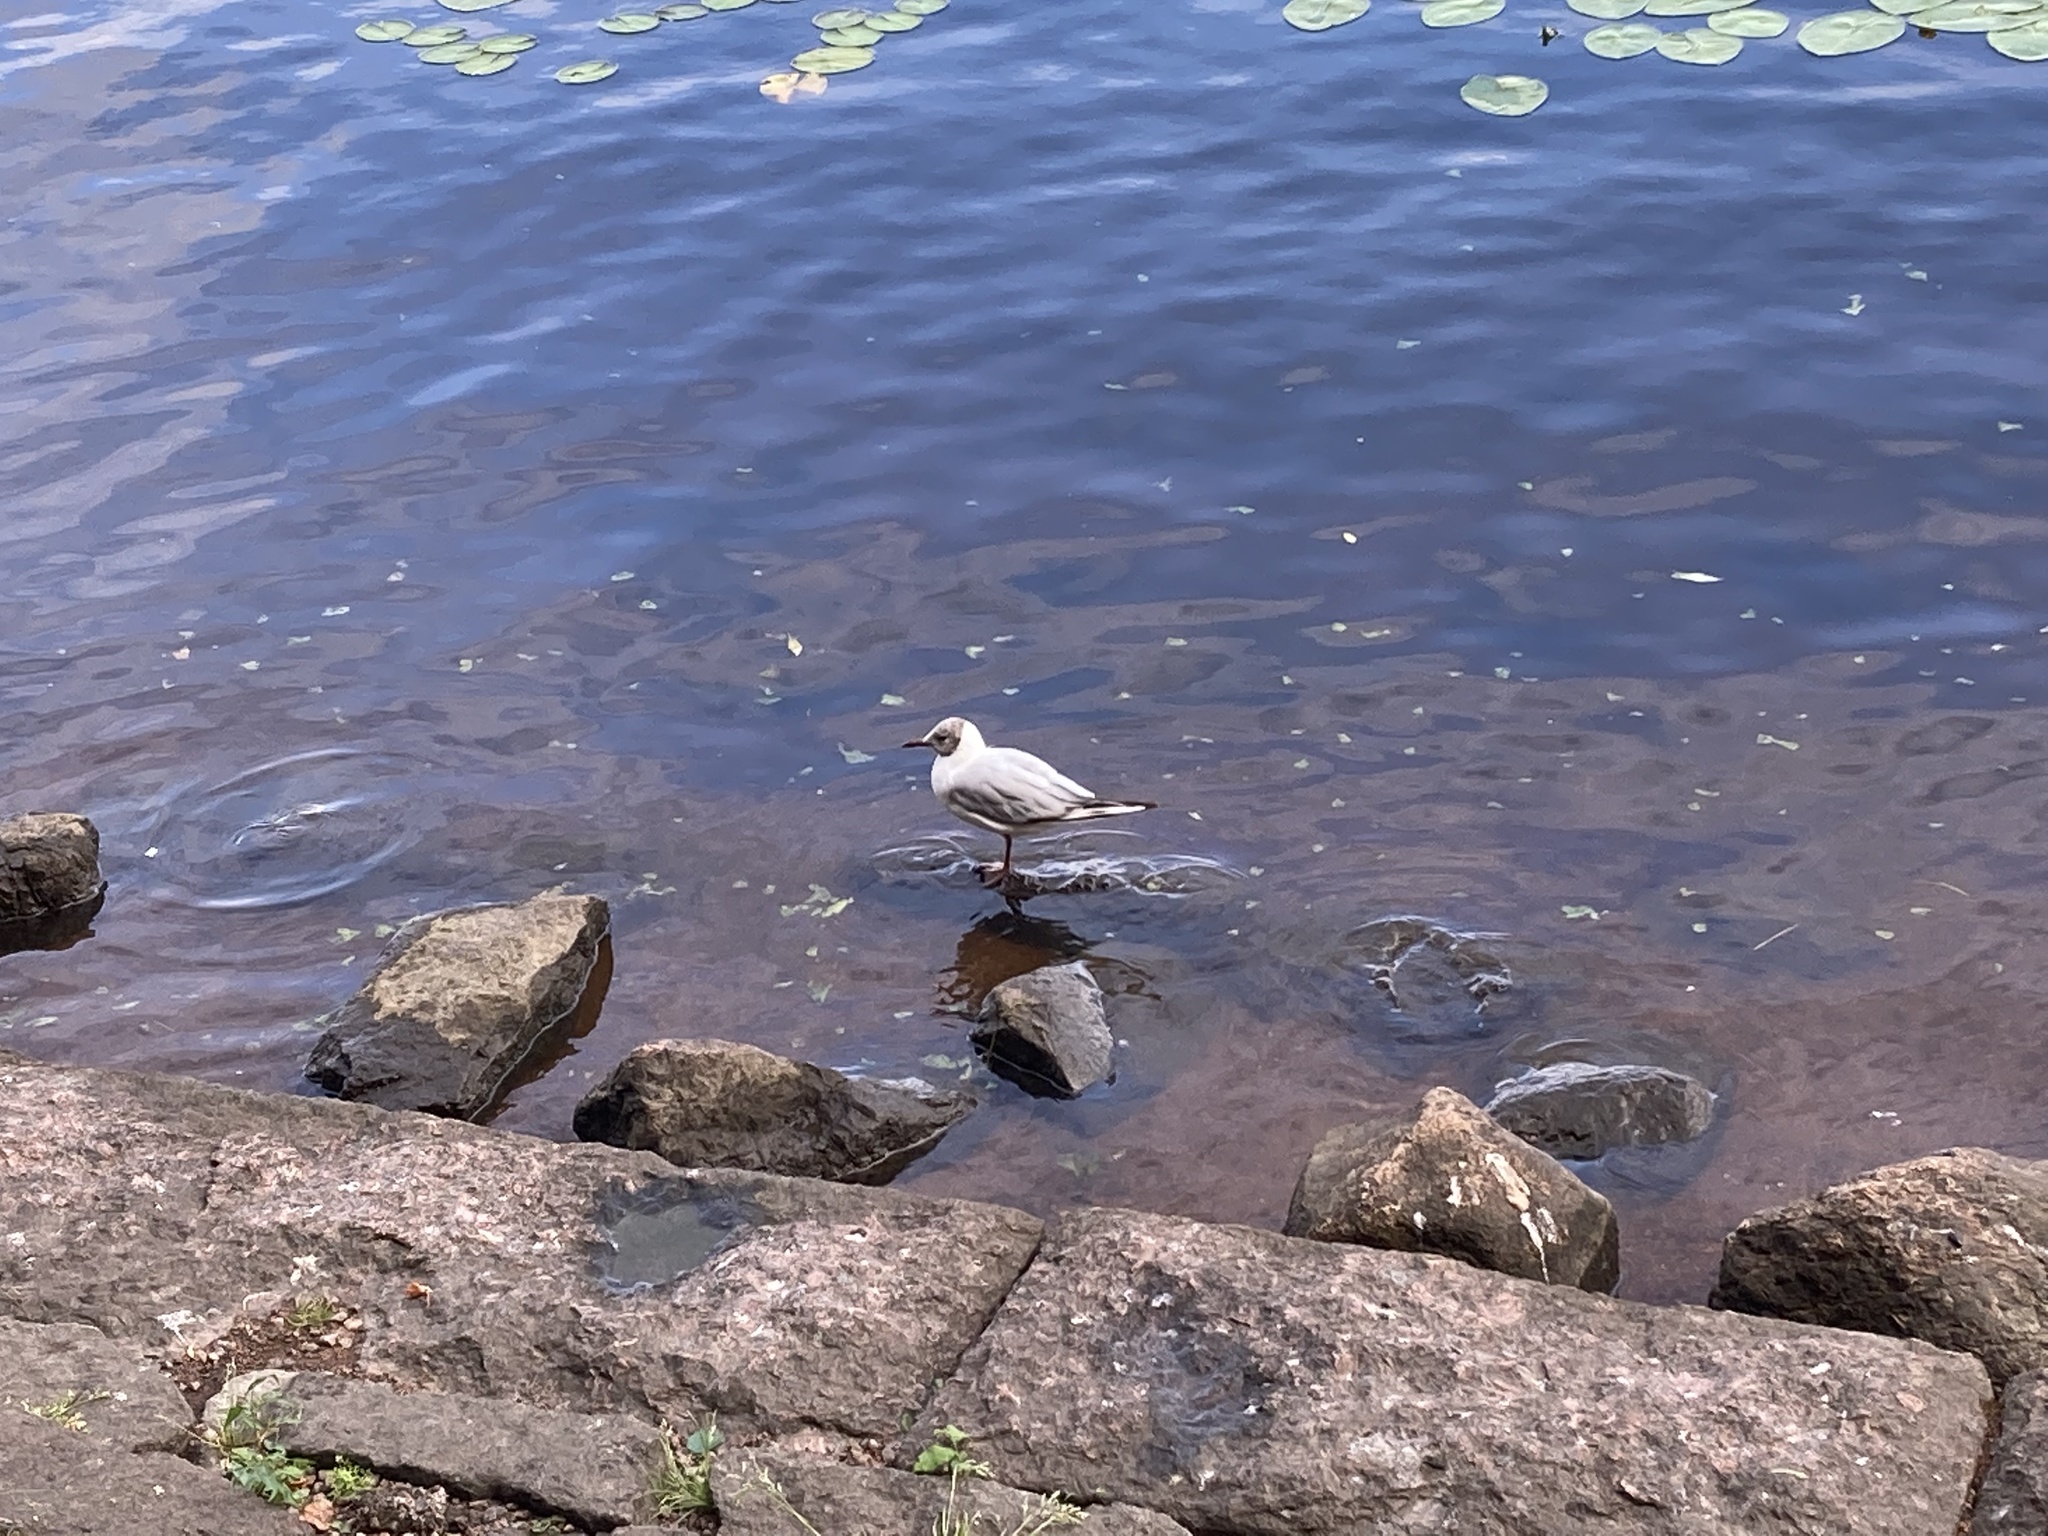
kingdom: Animalia
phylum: Chordata
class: Aves
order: Charadriiformes
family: Laridae
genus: Chroicocephalus
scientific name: Chroicocephalus ridibundus
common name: Black-headed gull
